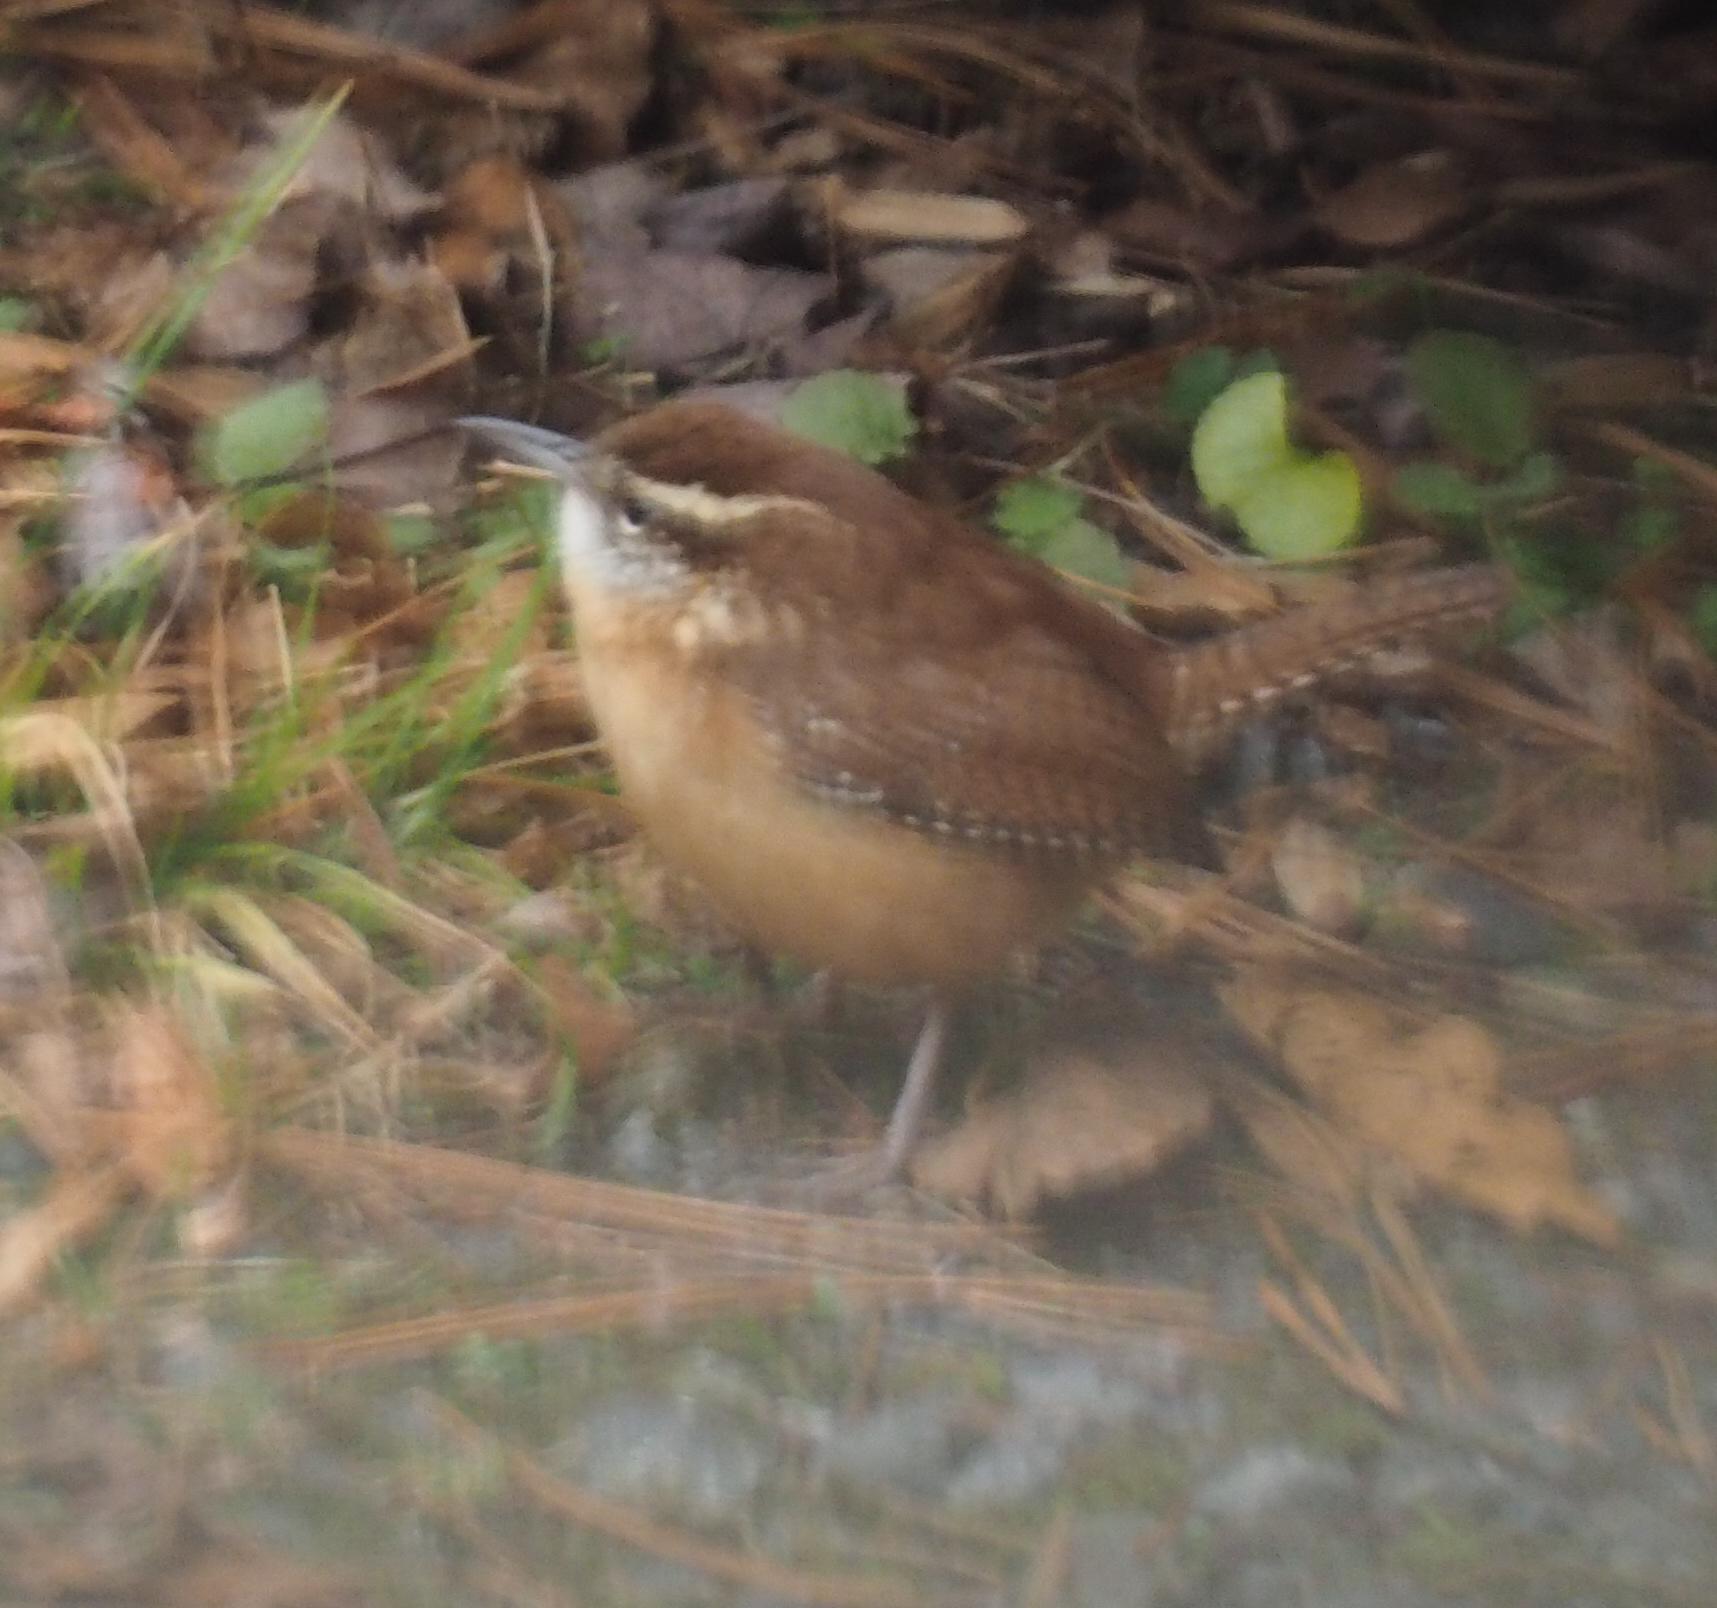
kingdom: Animalia
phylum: Chordata
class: Aves
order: Passeriformes
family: Troglodytidae
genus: Thryothorus
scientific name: Thryothorus ludovicianus
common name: Carolina wren
